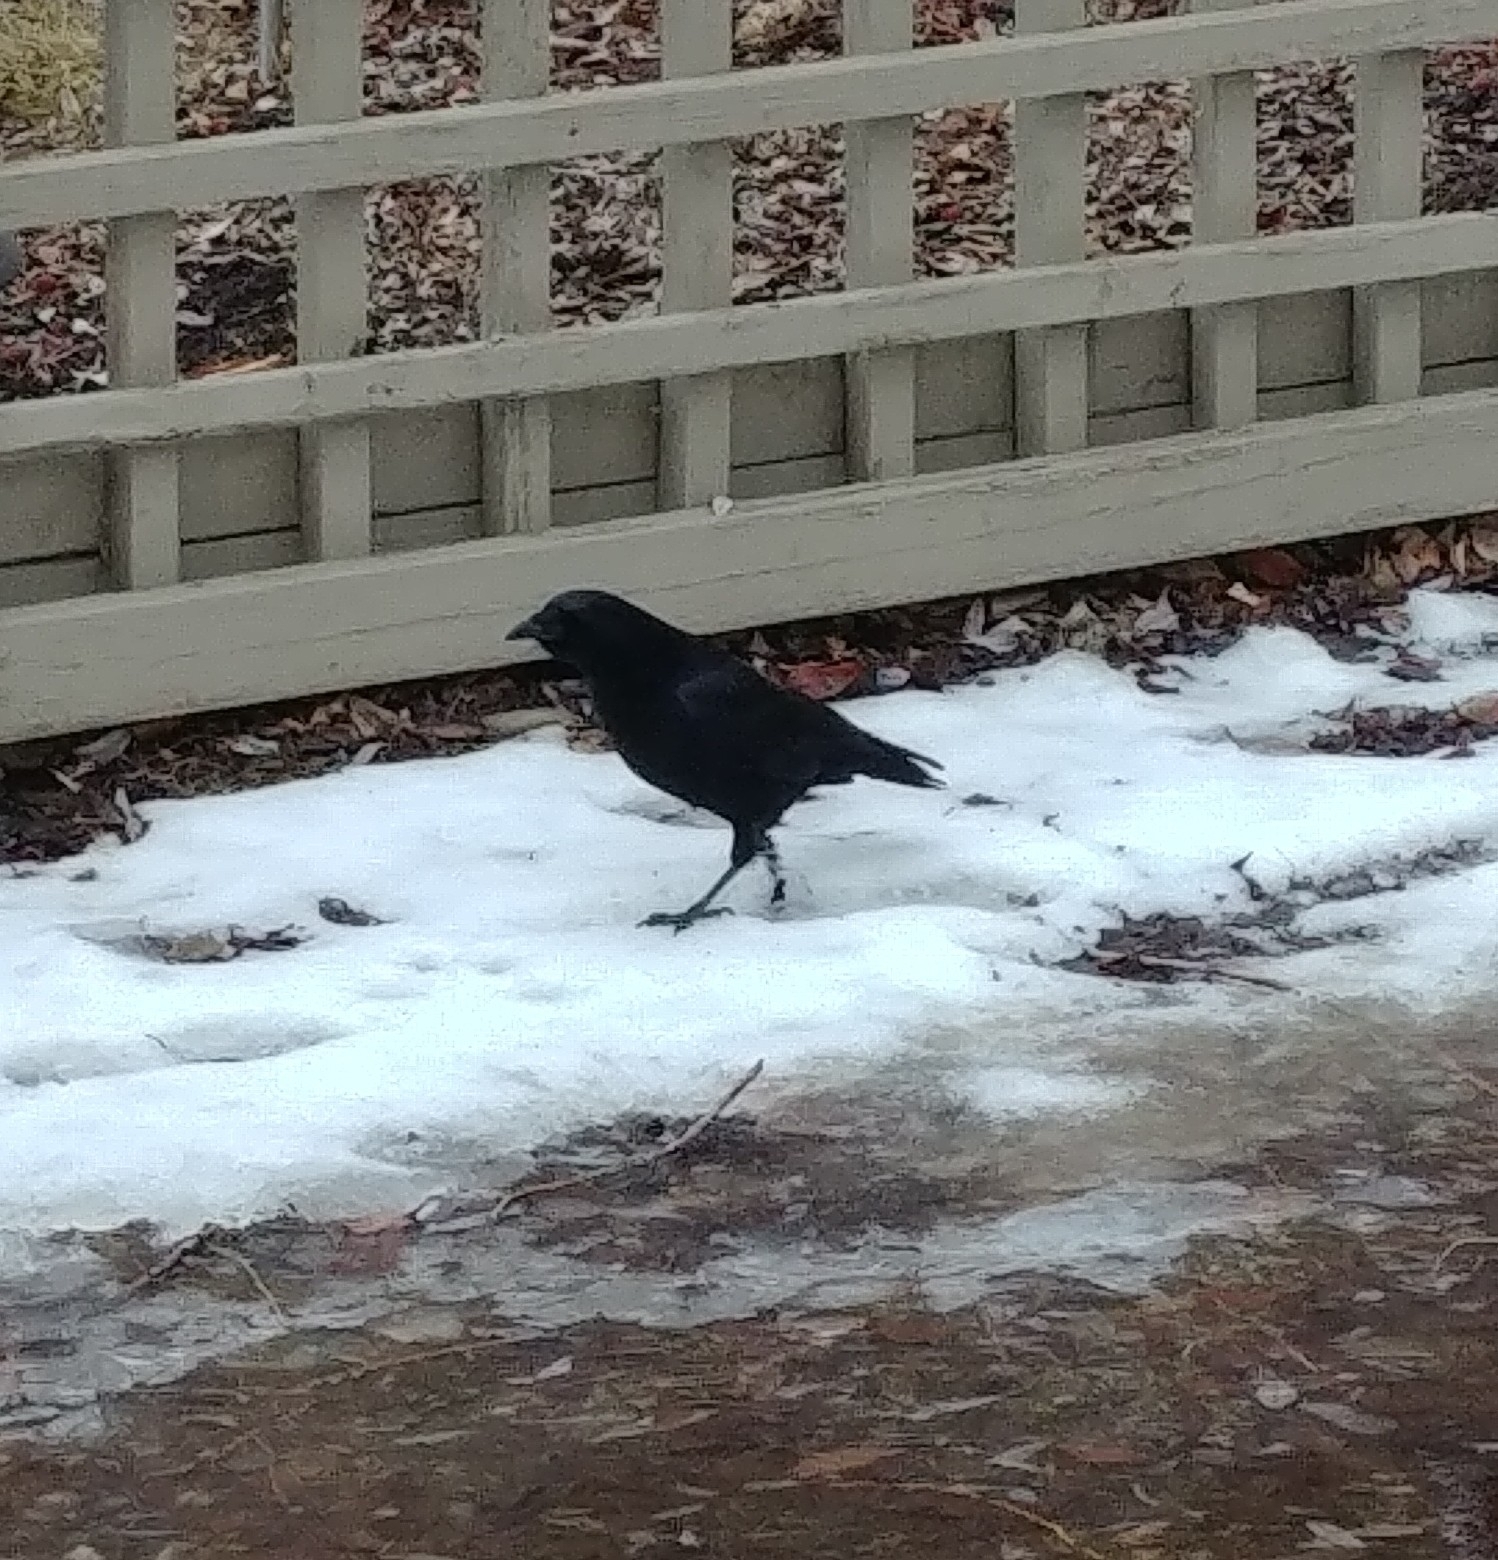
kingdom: Animalia
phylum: Chordata
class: Aves
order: Passeriformes
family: Corvidae
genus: Corvus
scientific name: Corvus brachyrhynchos
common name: American crow
